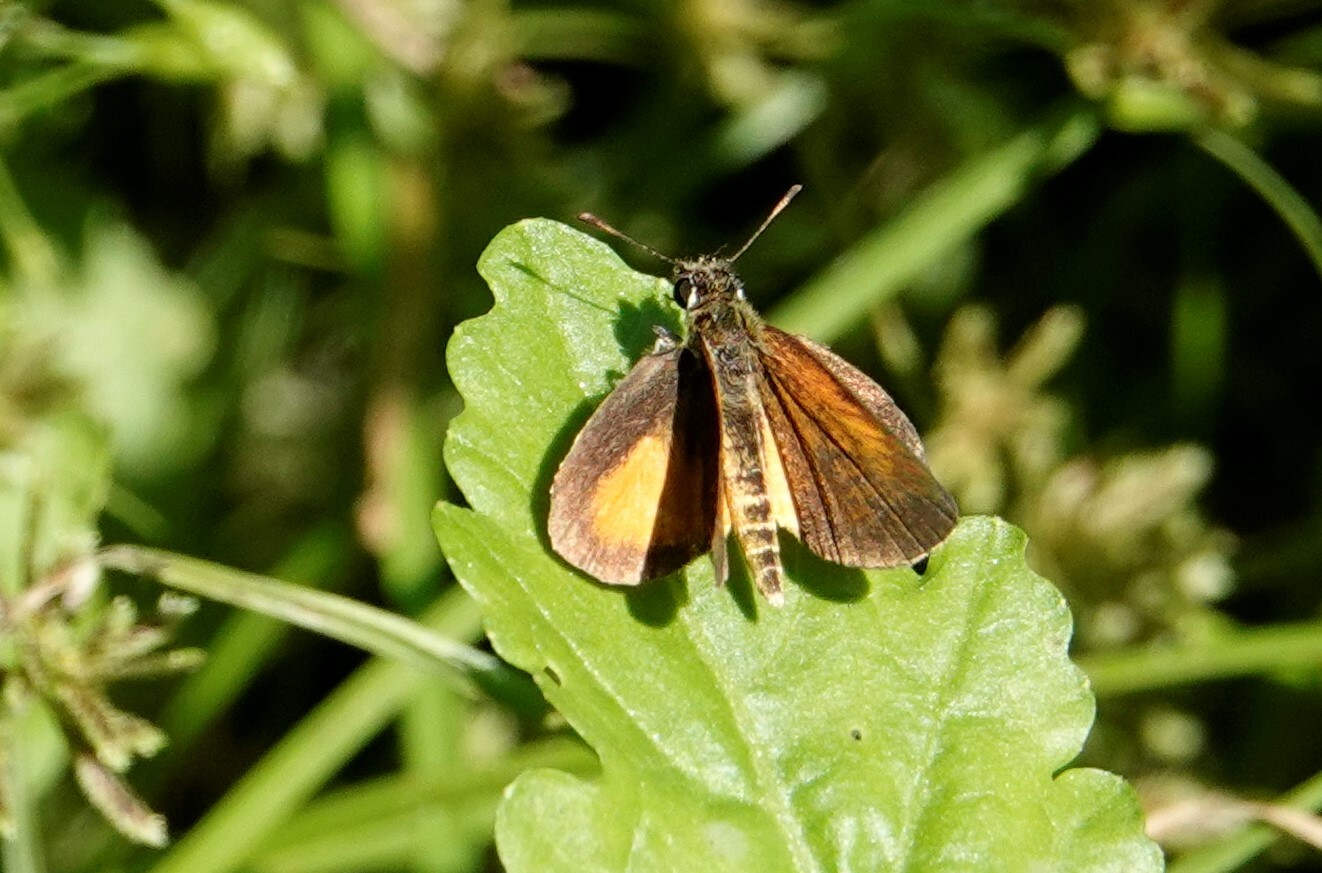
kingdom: Animalia
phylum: Arthropoda
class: Insecta
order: Lepidoptera
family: Hesperiidae
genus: Ancyloxypha
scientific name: Ancyloxypha numitor
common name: Least skipper
